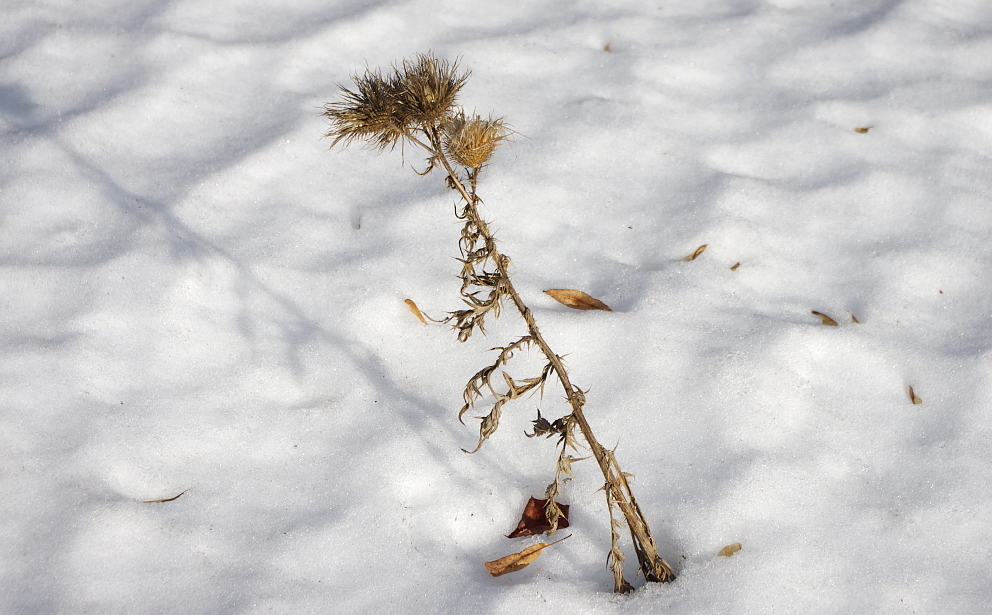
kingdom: Plantae
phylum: Tracheophyta
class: Magnoliopsida
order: Asterales
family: Asteraceae
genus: Cirsium
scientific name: Cirsium vulgare
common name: Bull thistle
